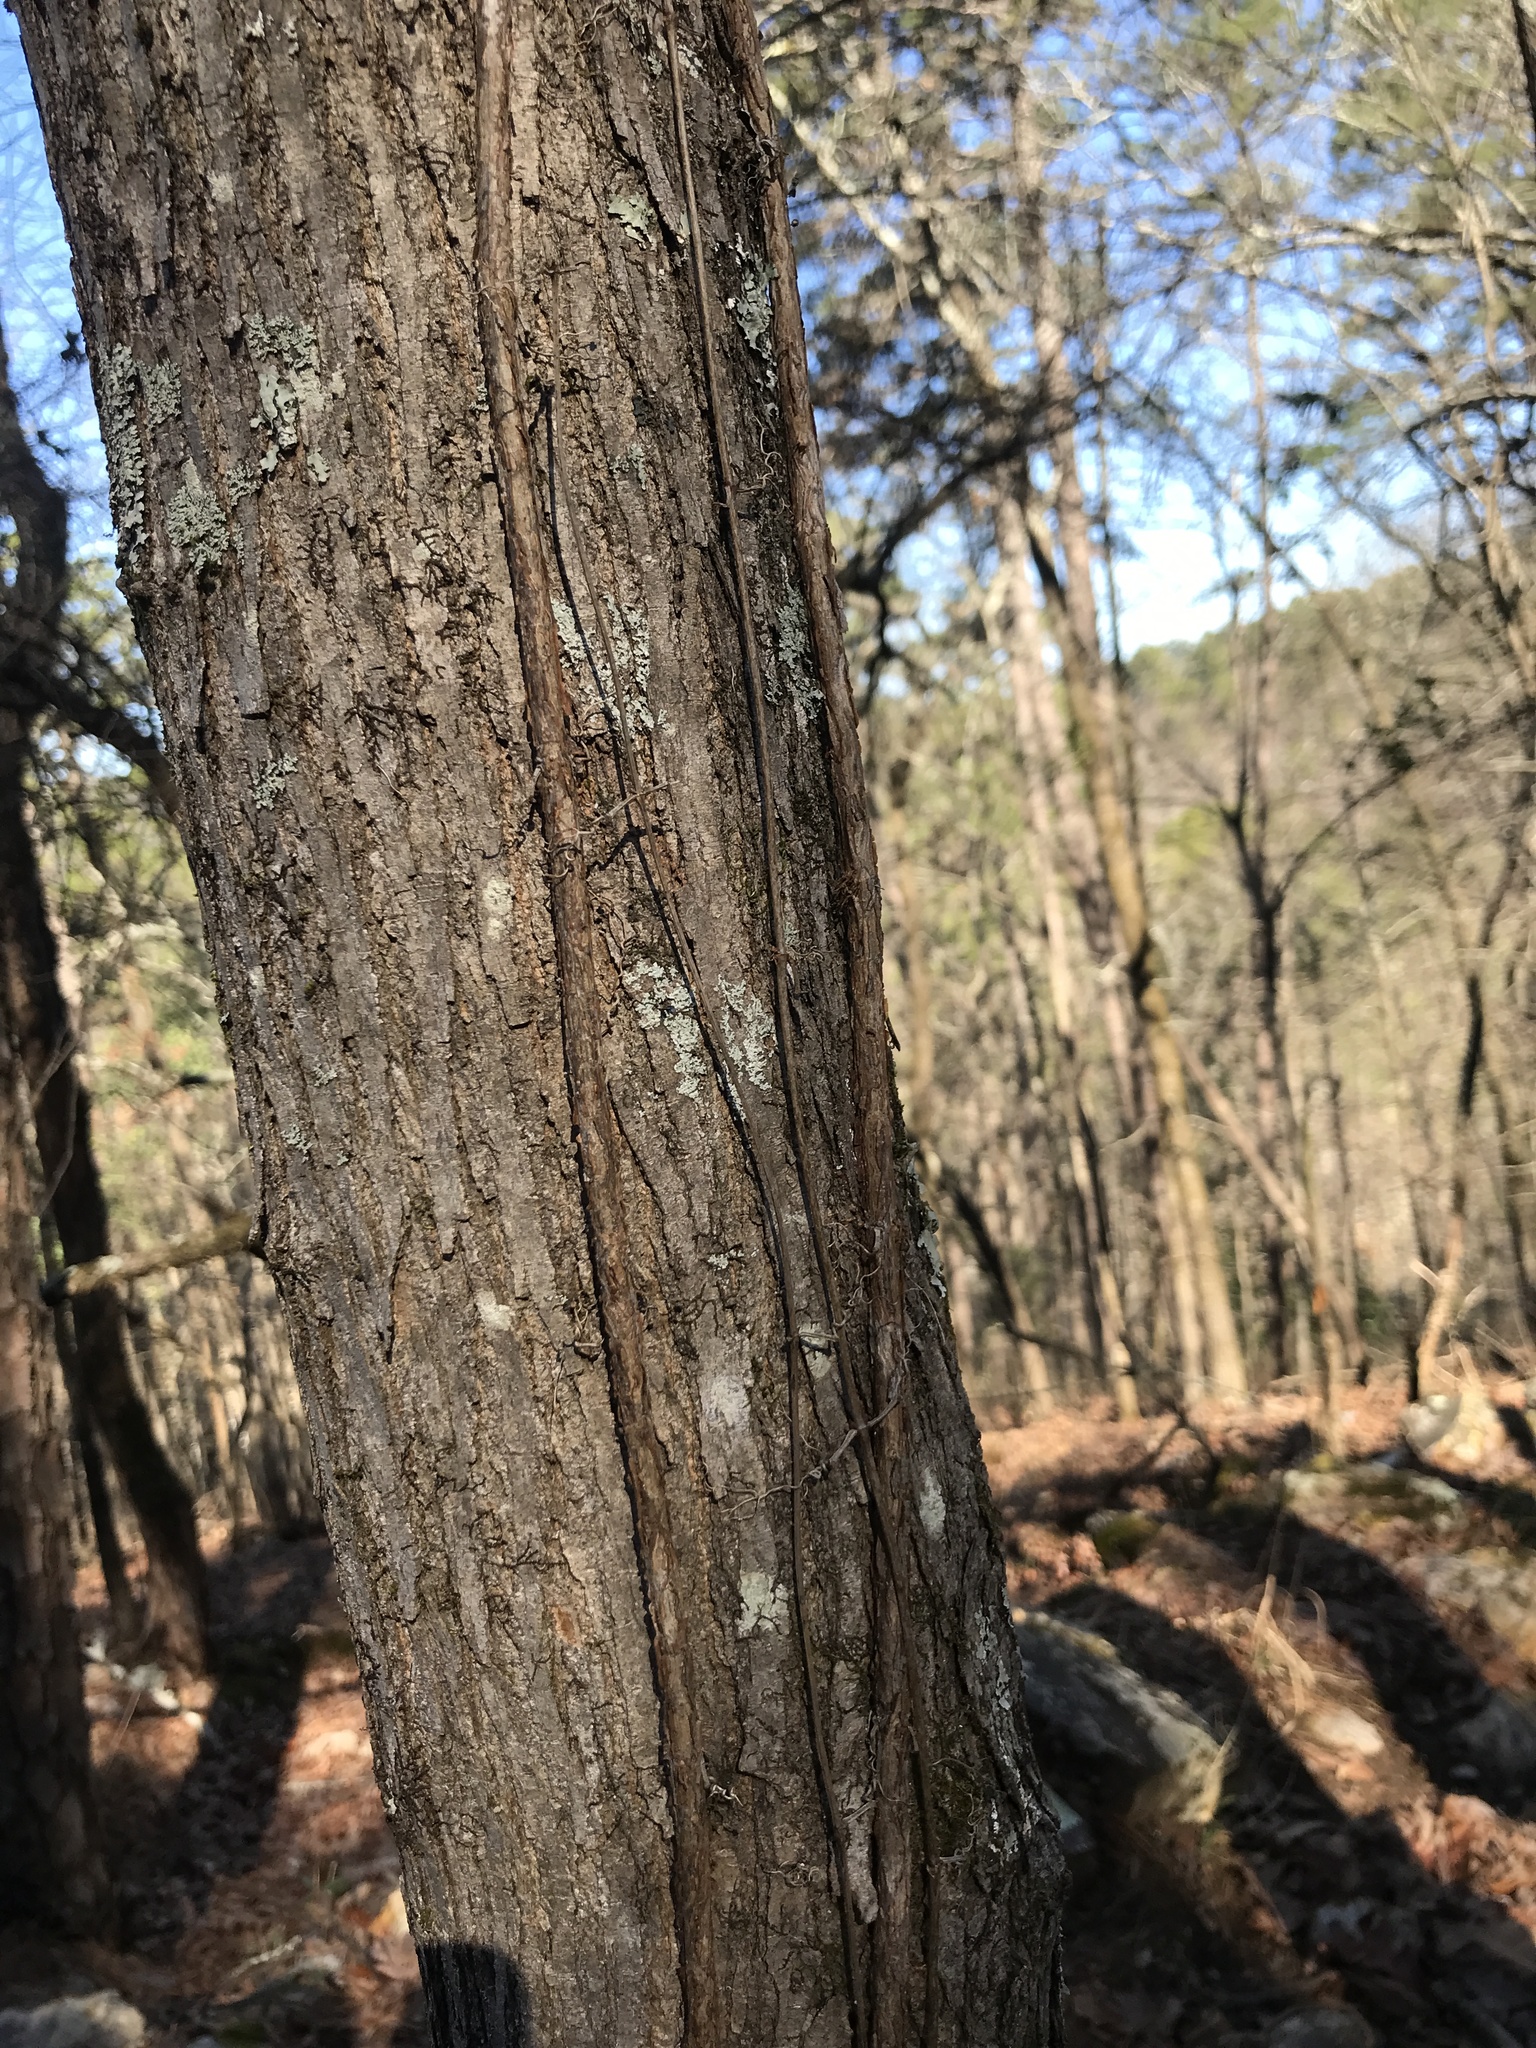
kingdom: Plantae
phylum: Tracheophyta
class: Magnoliopsida
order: Lamiales
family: Bignoniaceae
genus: Bignonia
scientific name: Bignonia capreolata
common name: Crossvine
